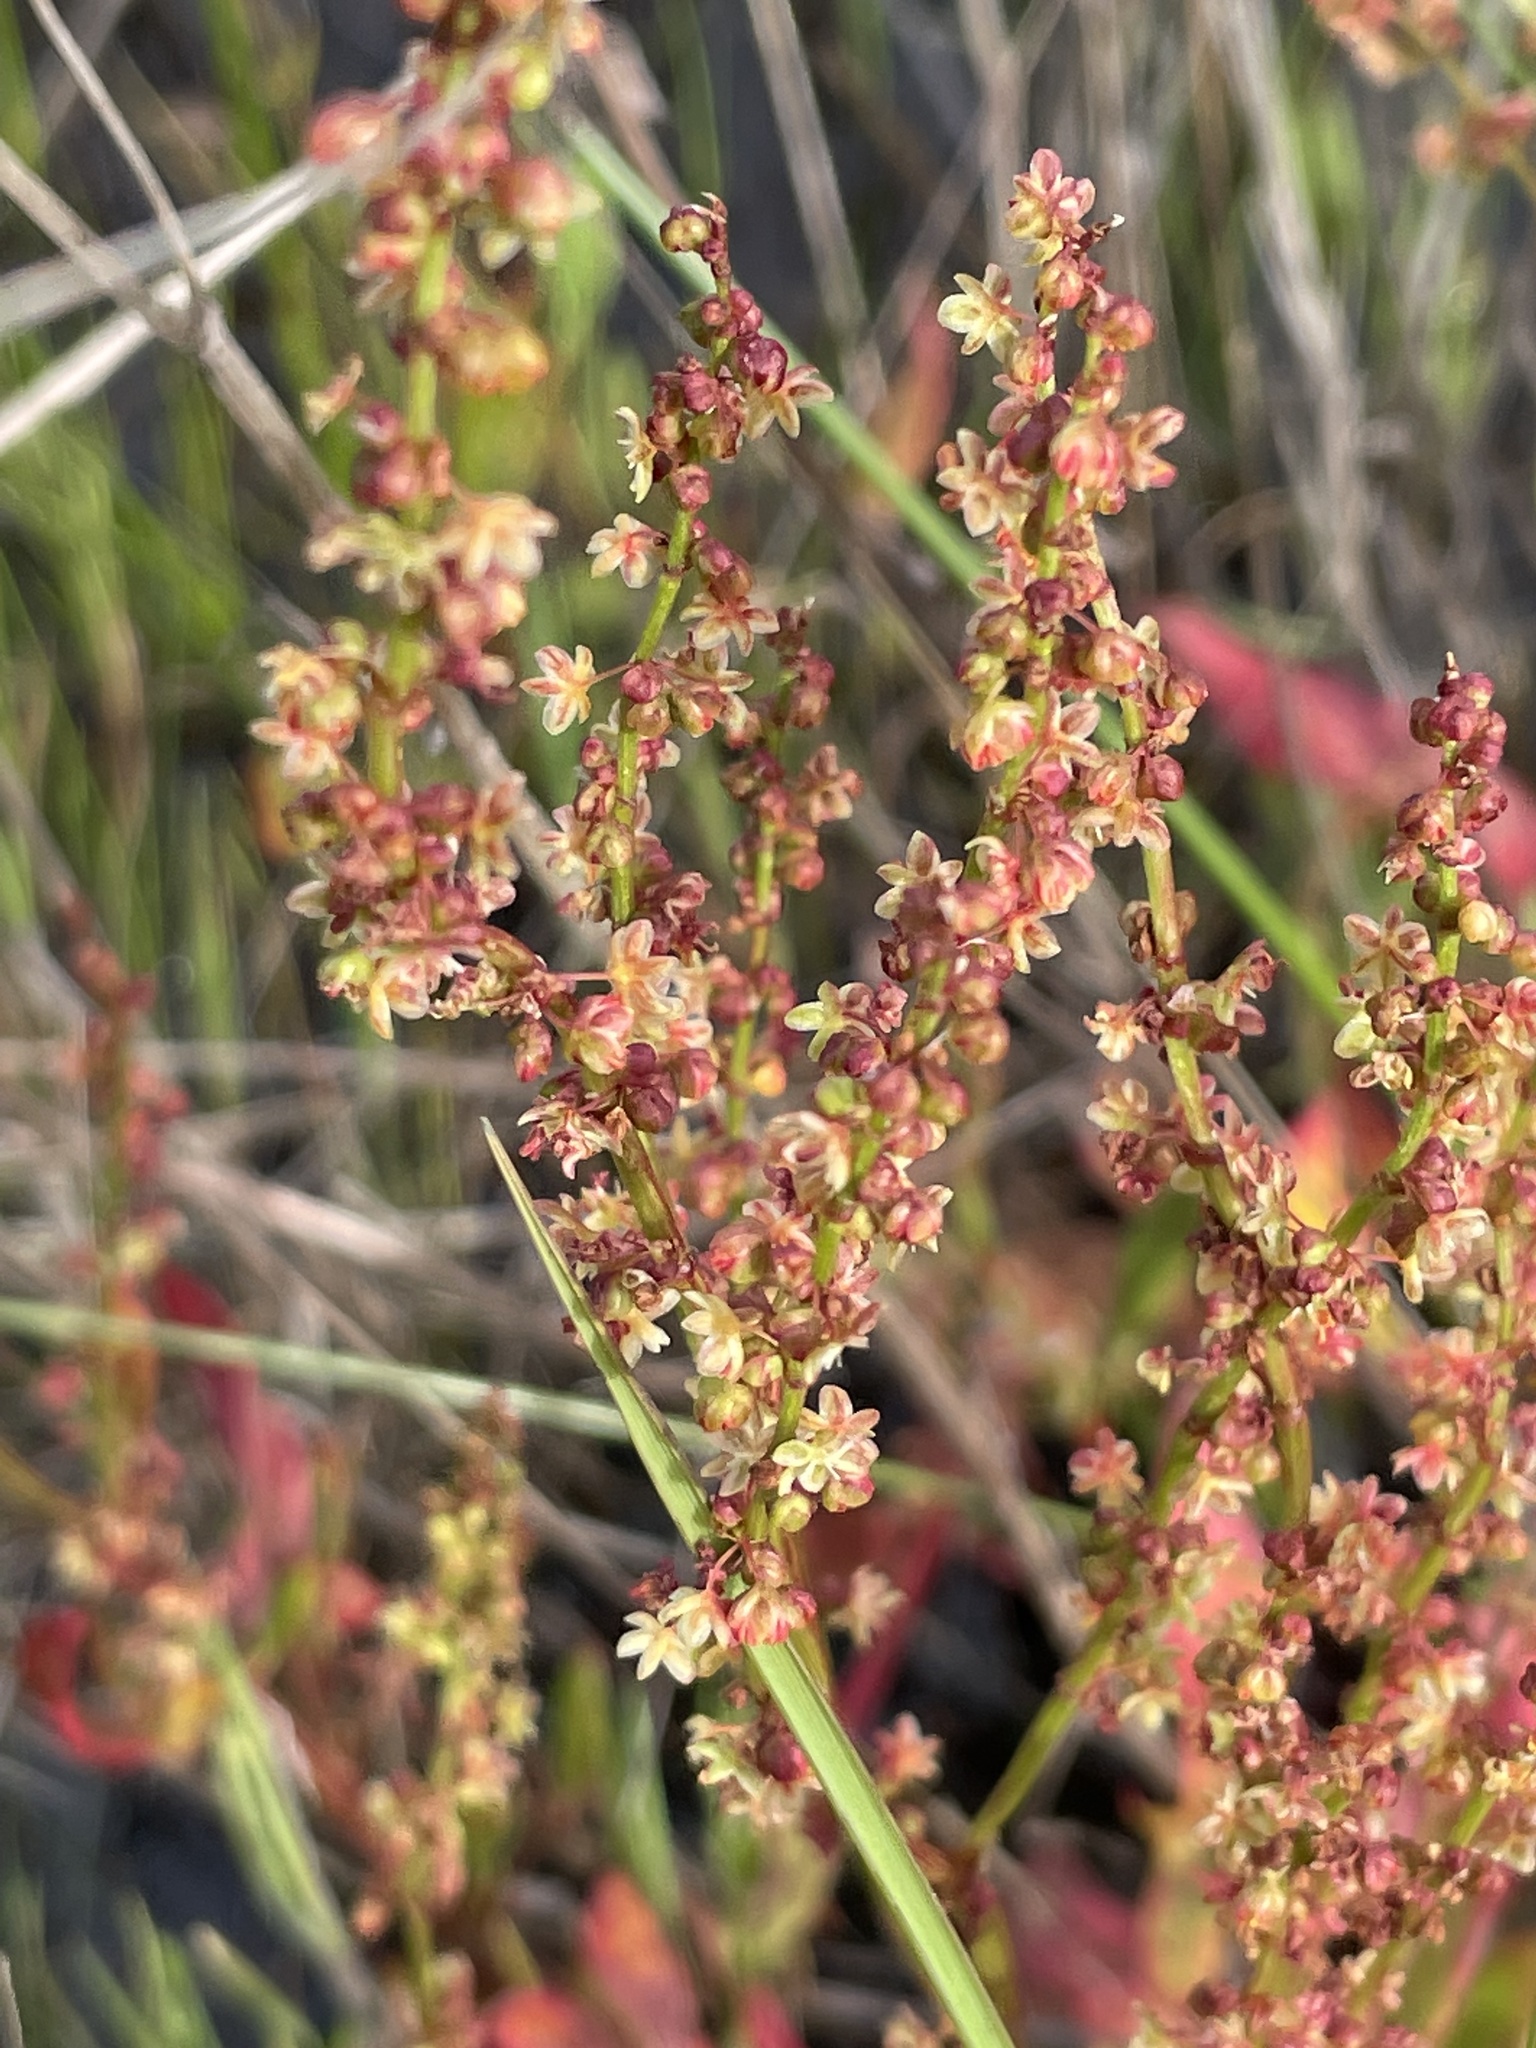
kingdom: Plantae
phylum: Tracheophyta
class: Magnoliopsida
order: Caryophyllales
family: Polygonaceae
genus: Rumex
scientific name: Rumex acetosella
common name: Common sheep sorrel
